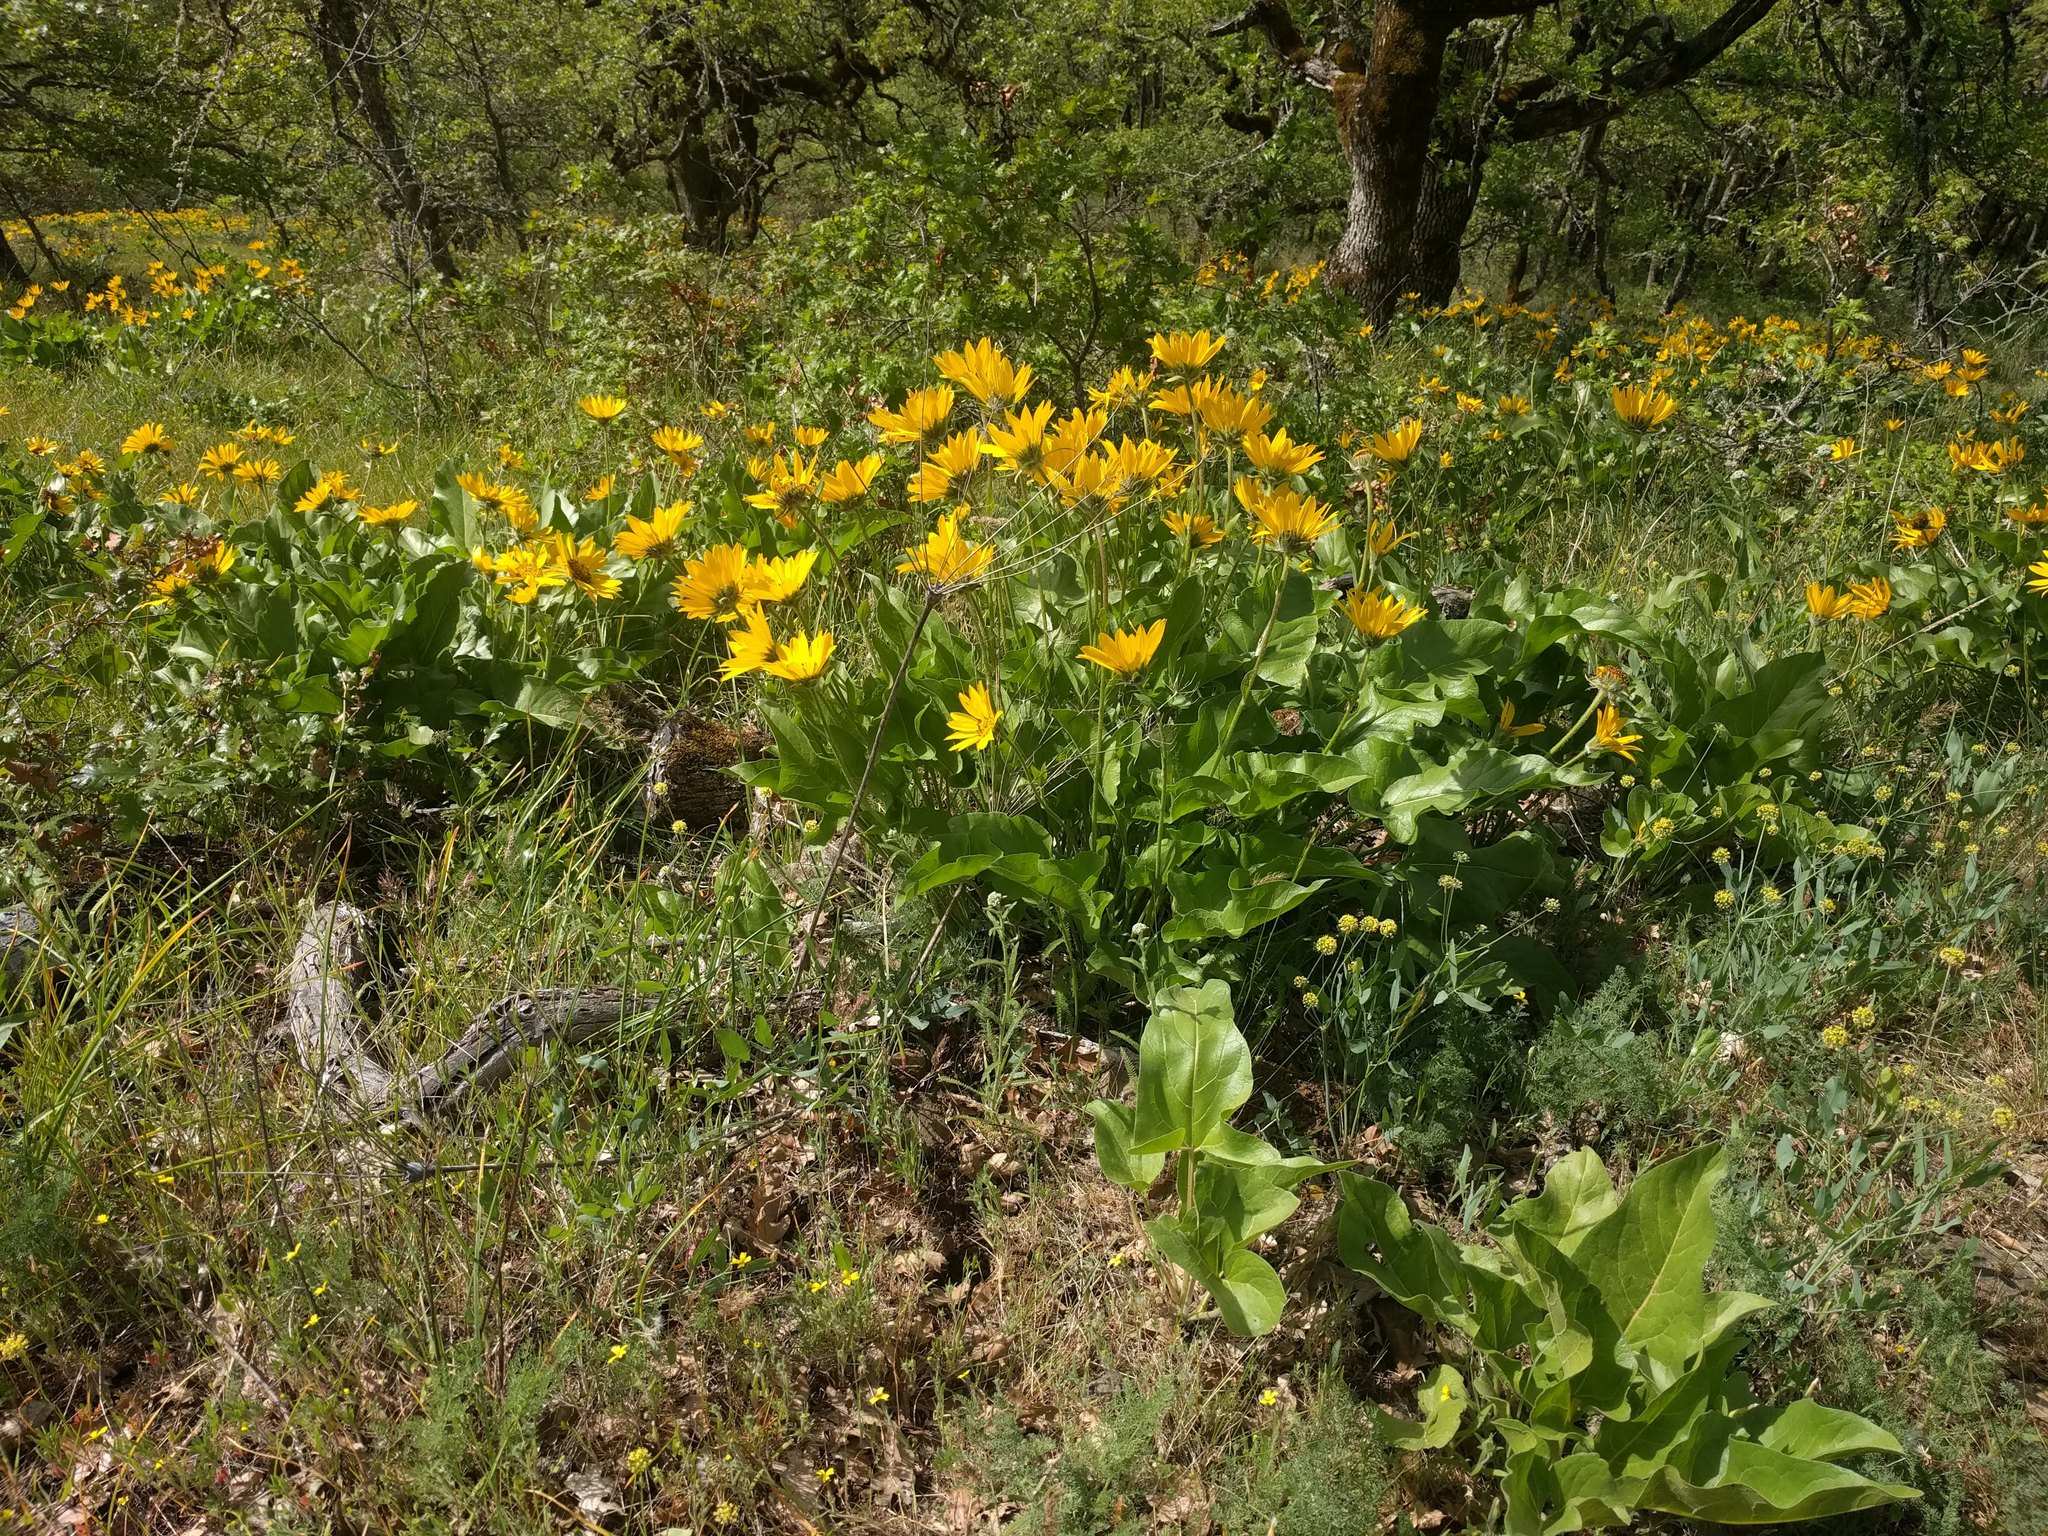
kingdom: Plantae
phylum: Tracheophyta
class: Magnoliopsida
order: Asterales
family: Asteraceae
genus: Balsamorhiza
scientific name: Balsamorhiza deltoidea
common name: Deltoid balsamroot
